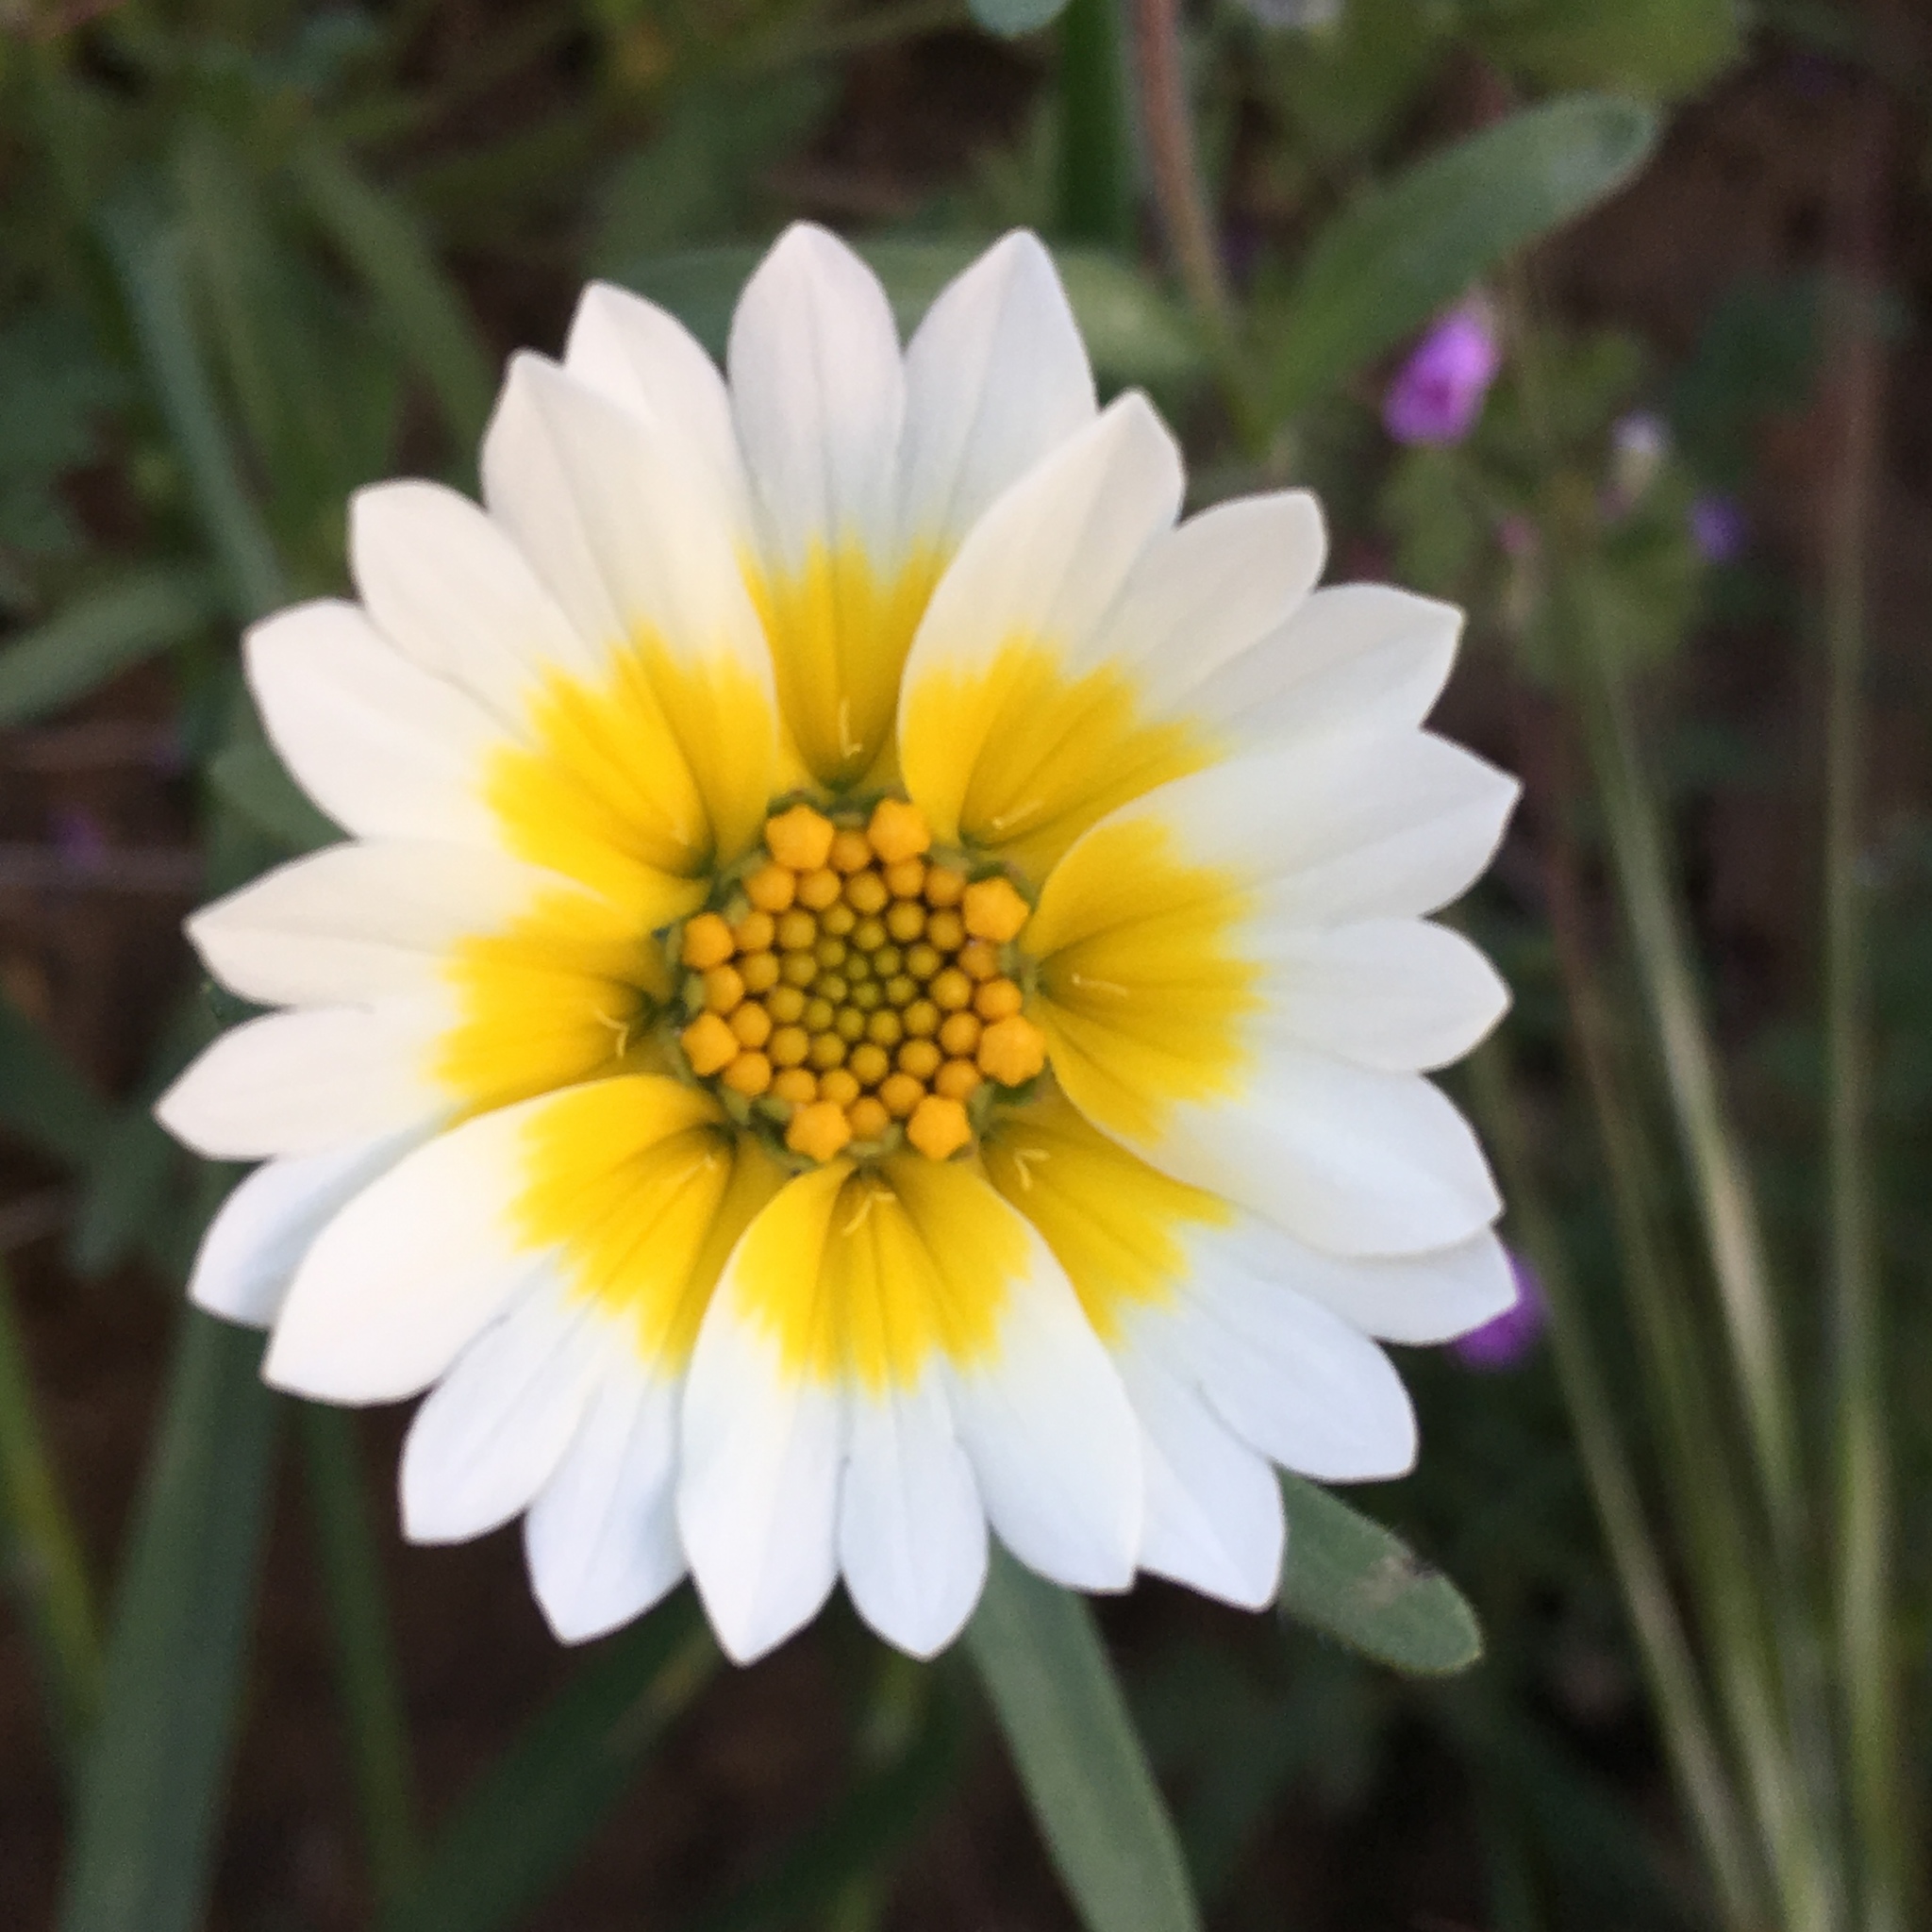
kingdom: Plantae
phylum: Tracheophyta
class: Magnoliopsida
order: Asterales
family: Asteraceae
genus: Layia
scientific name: Layia platyglossa
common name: Tidy-tips
